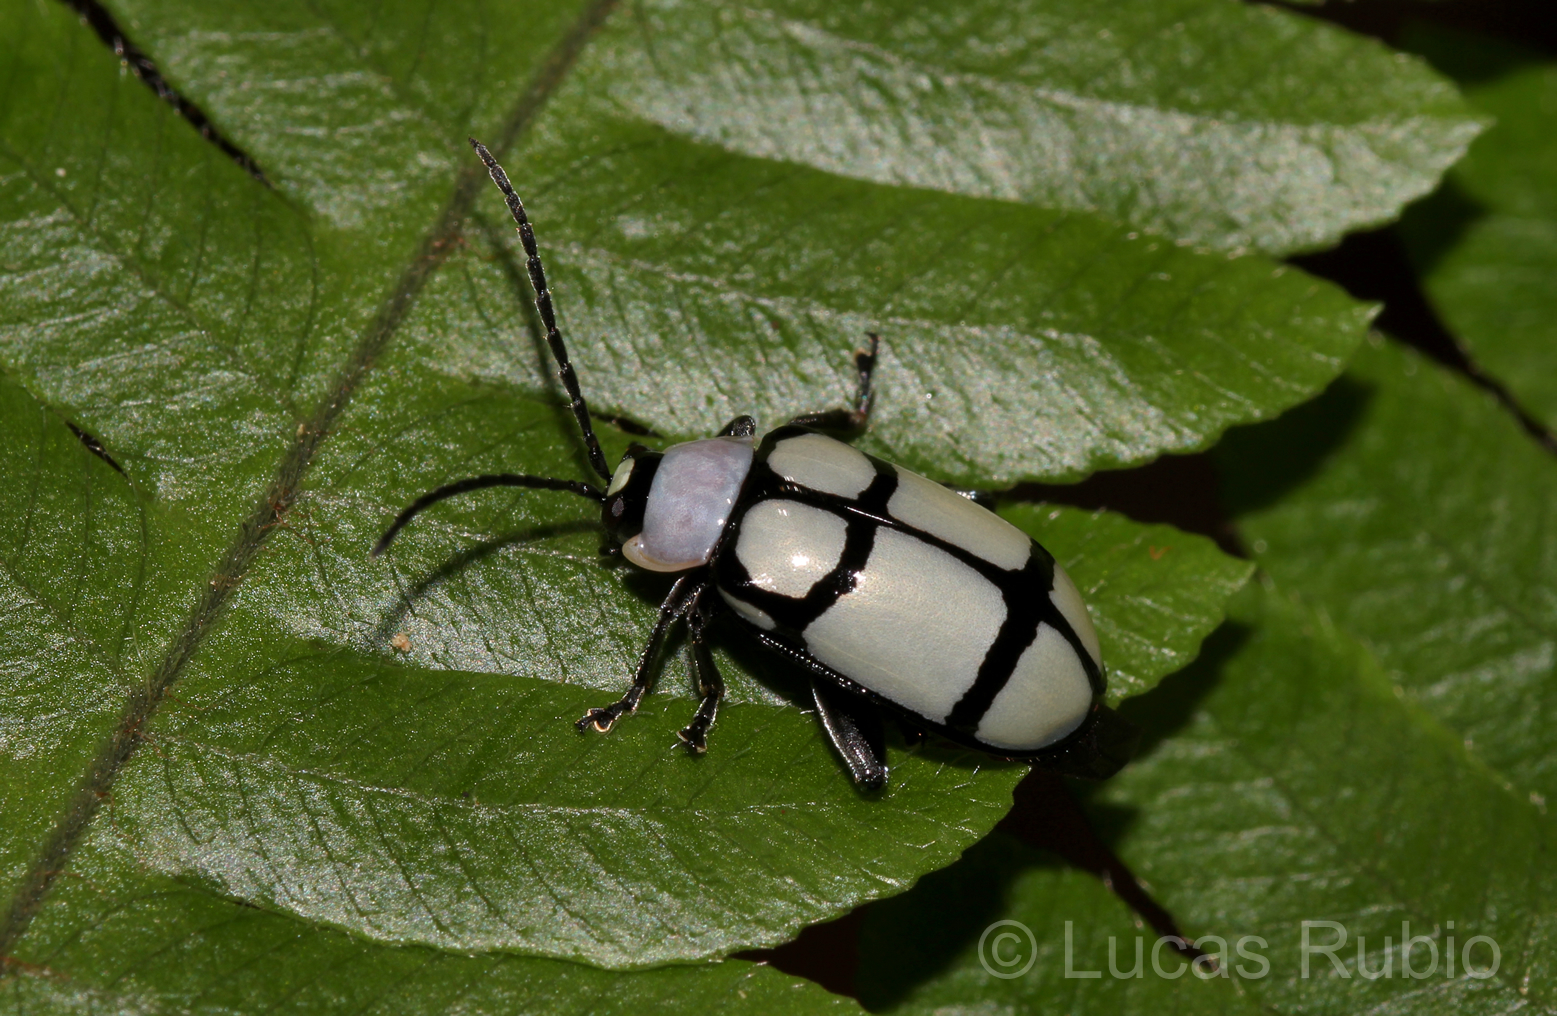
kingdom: Animalia
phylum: Arthropoda
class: Insecta
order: Coleoptera
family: Chrysomelidae
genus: Omophoita
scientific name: Omophoita
